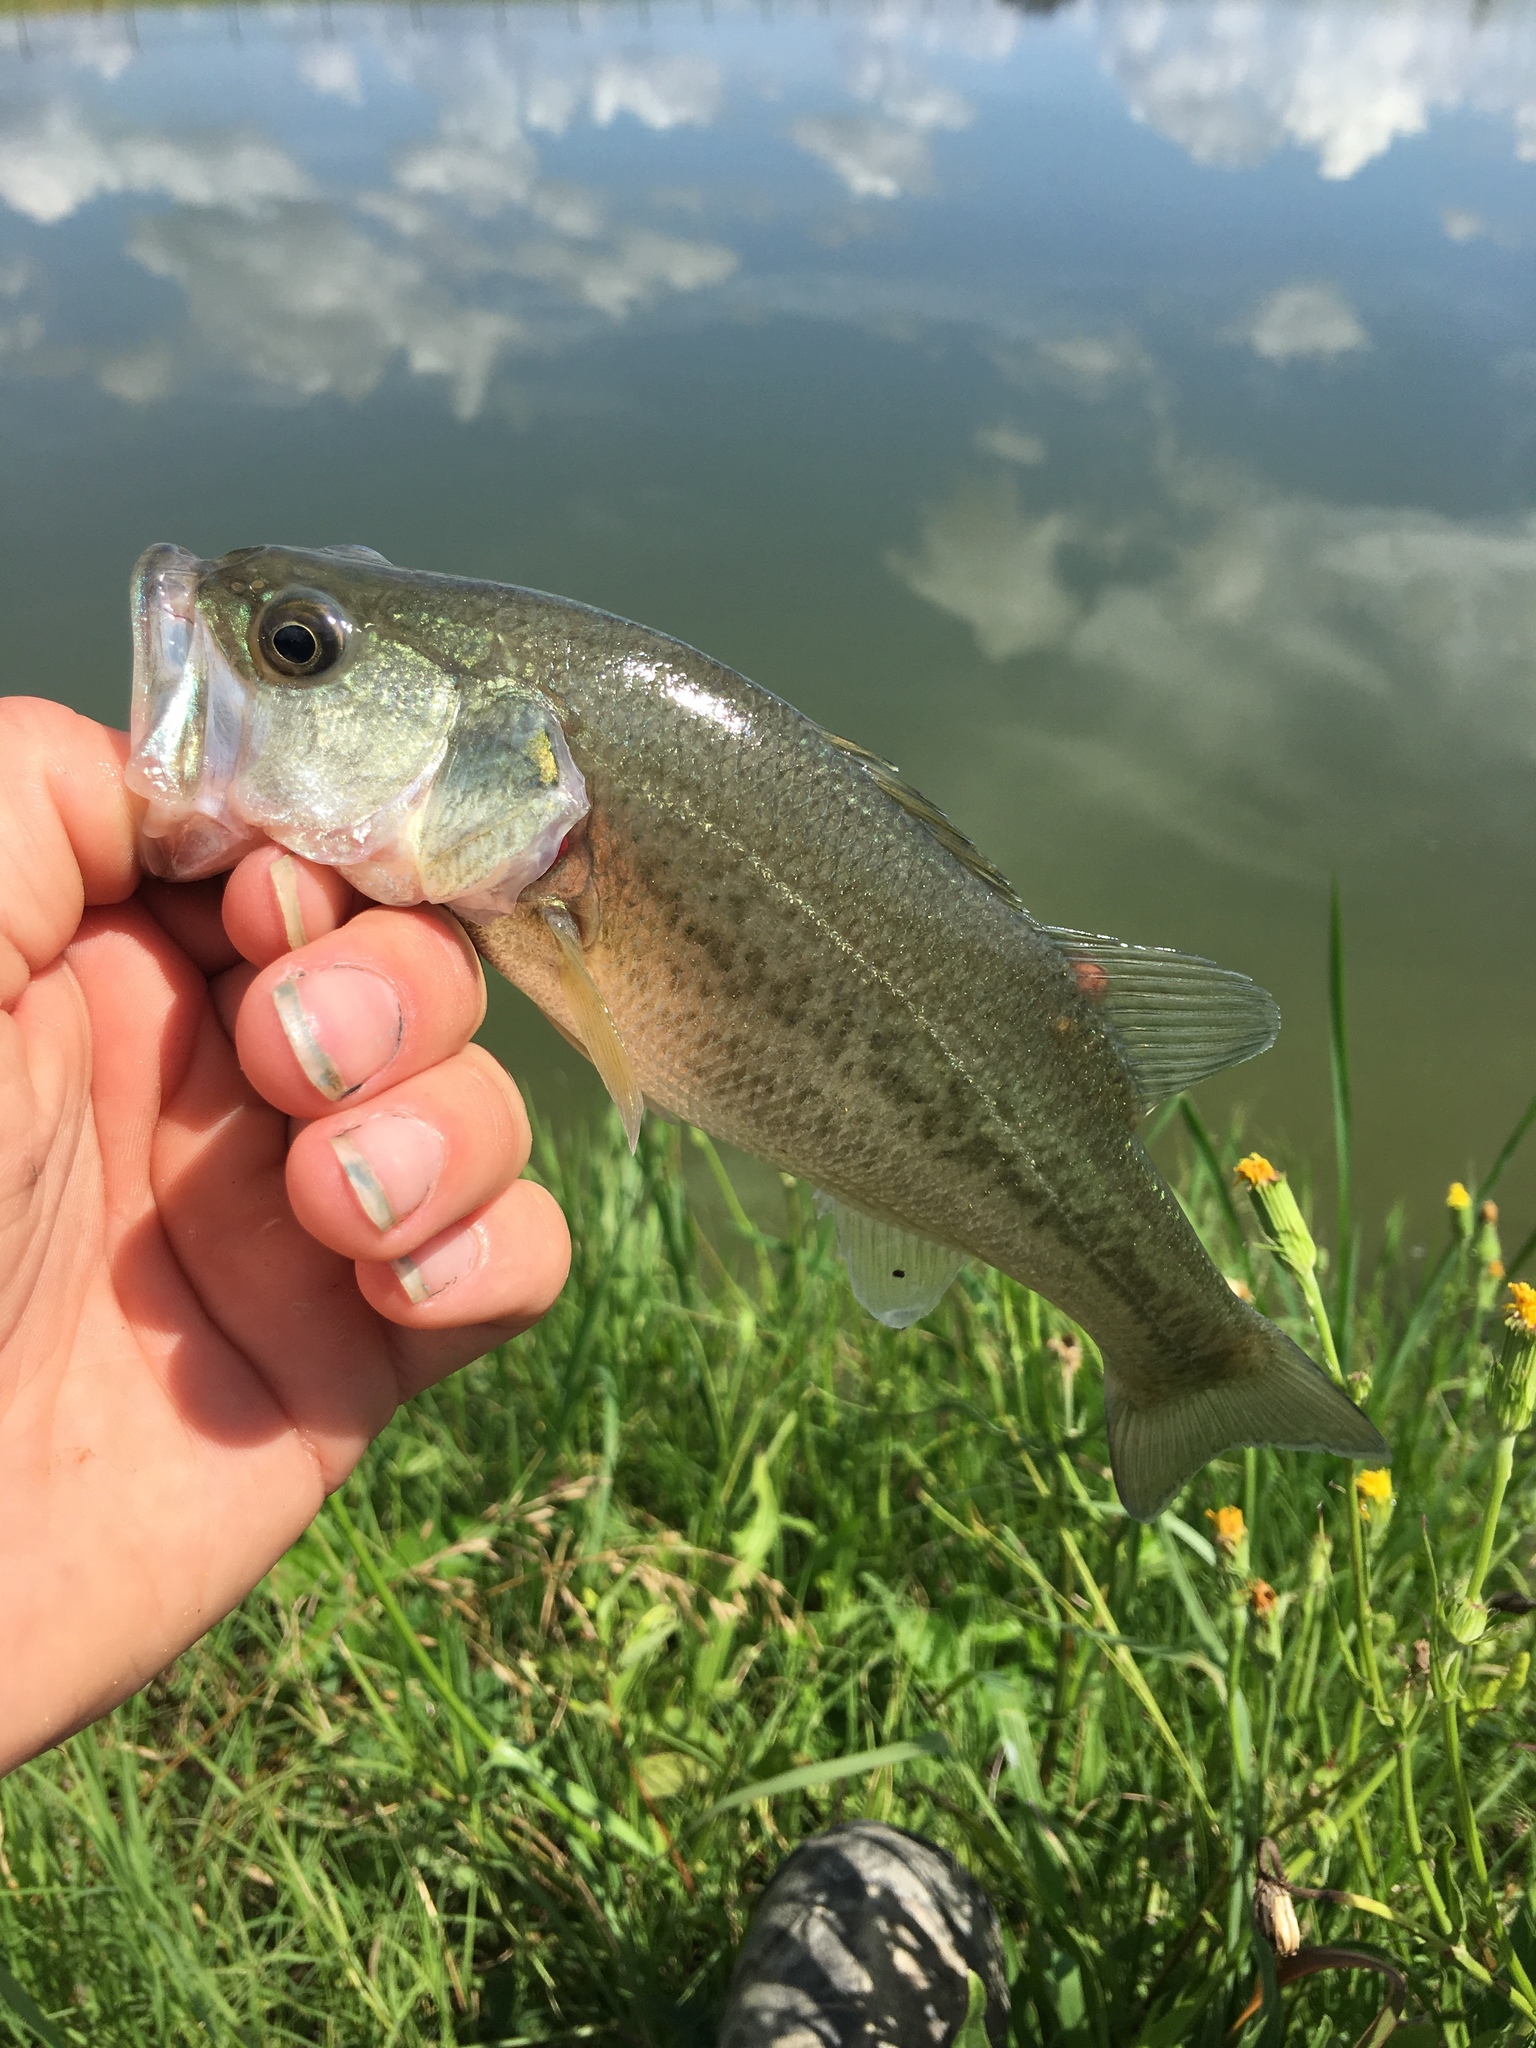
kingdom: Animalia
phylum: Chordata
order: Perciformes
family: Centrarchidae
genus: Micropterus
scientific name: Micropterus
